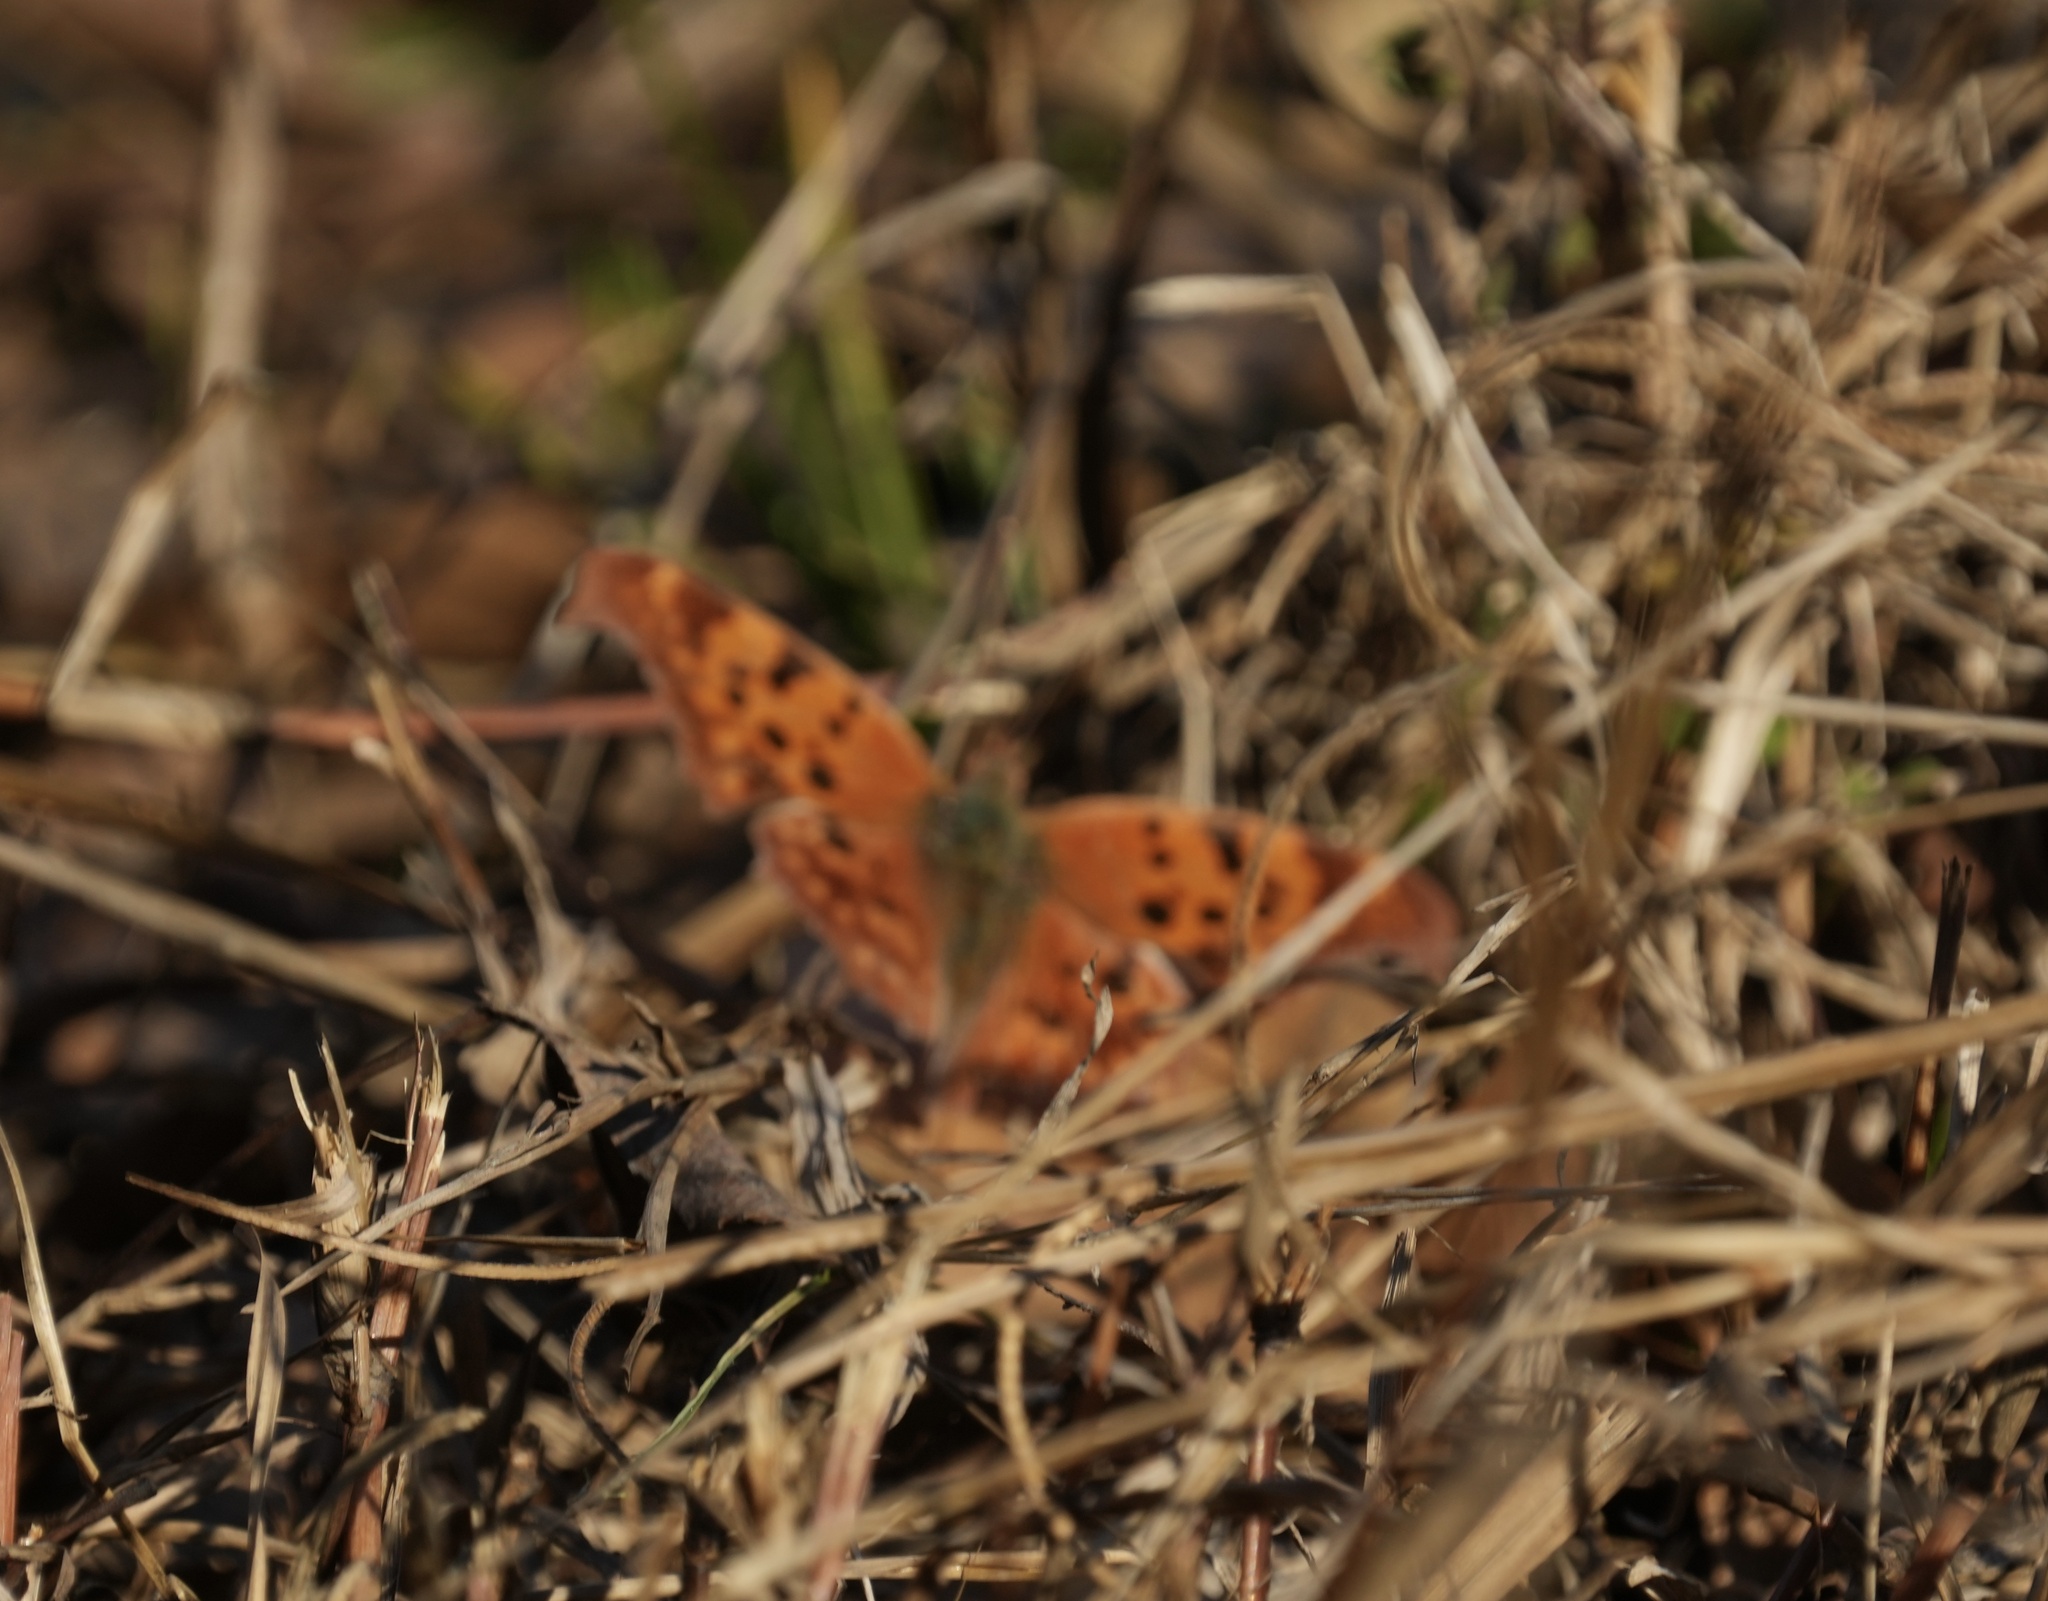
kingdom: Animalia
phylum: Arthropoda
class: Insecta
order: Lepidoptera
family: Nymphalidae
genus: Polygonia
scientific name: Polygonia interrogationis
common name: Question mark
